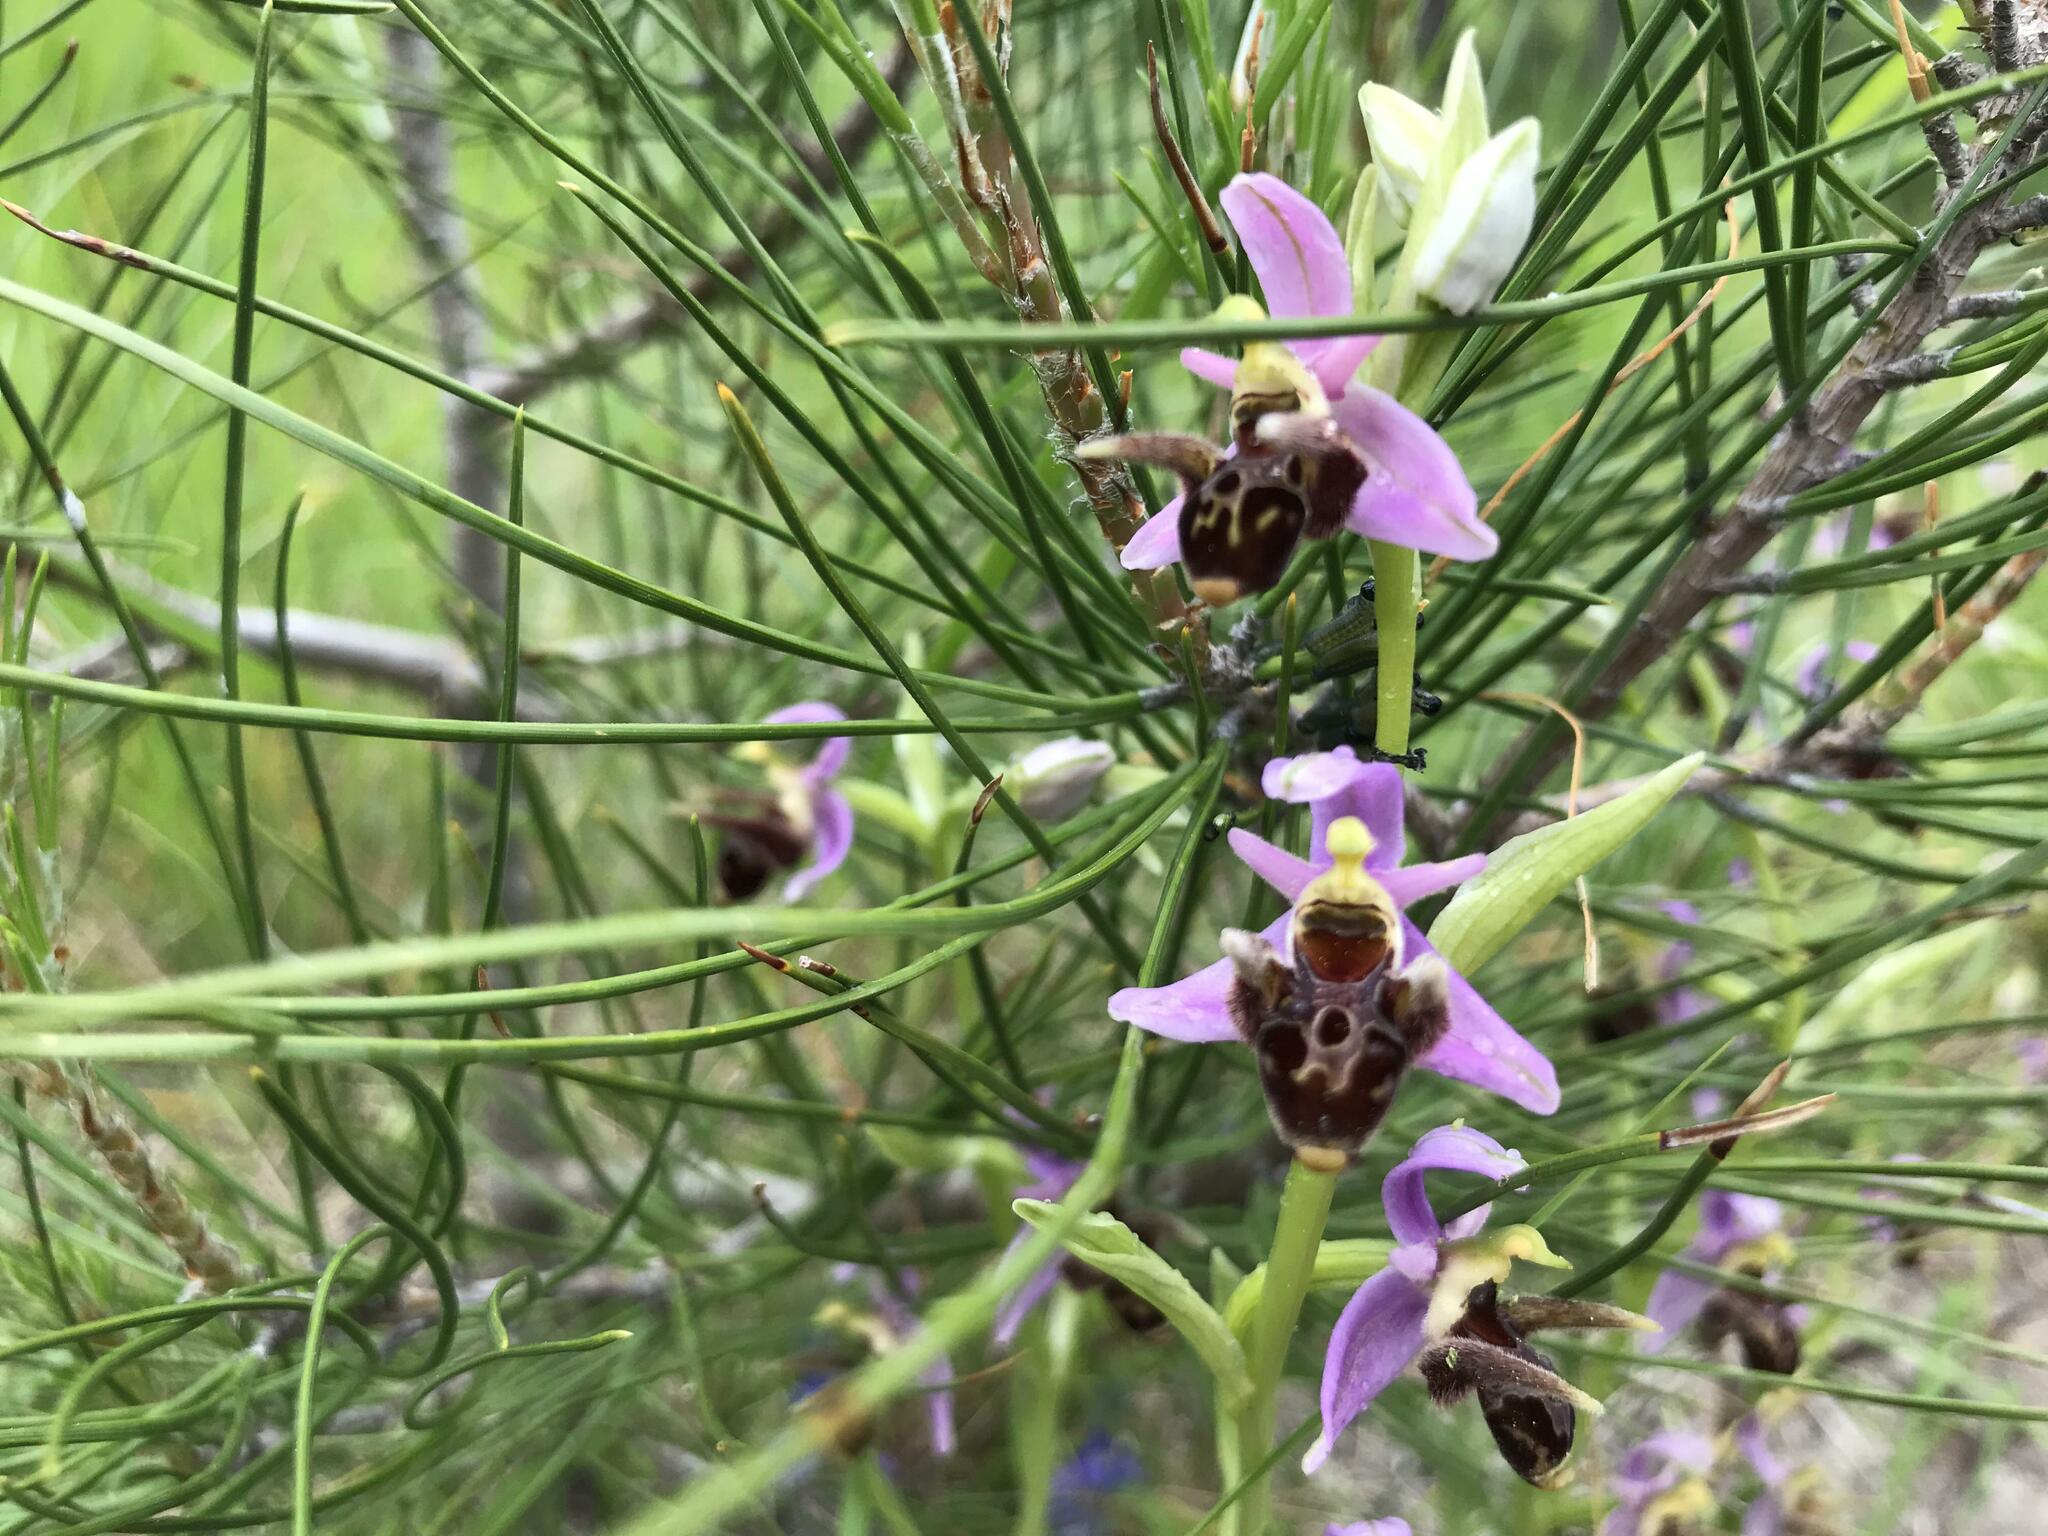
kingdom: Plantae
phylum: Tracheophyta
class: Liliopsida
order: Asparagales
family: Orchidaceae
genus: Ophrys
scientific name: Ophrys
